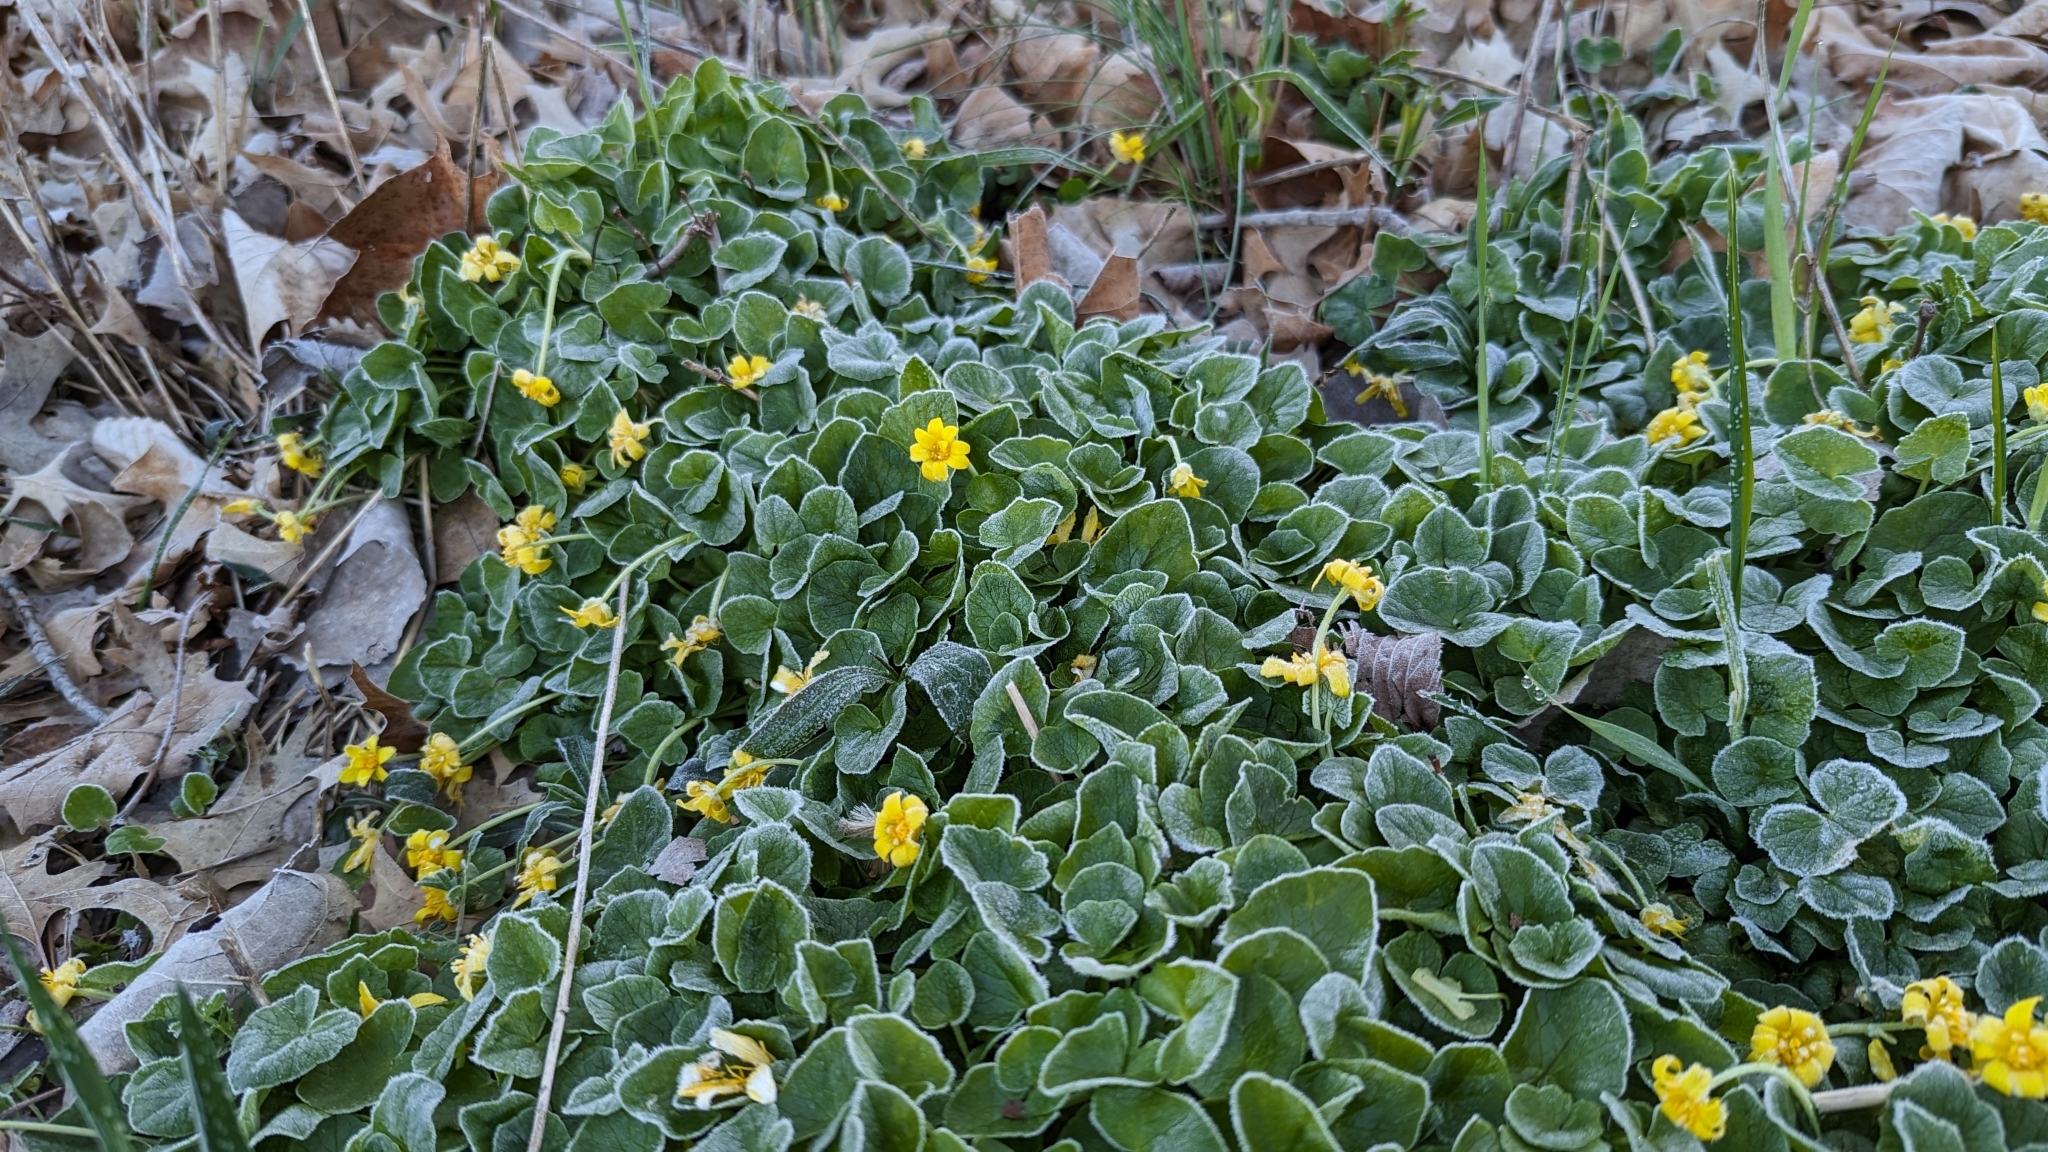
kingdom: Plantae
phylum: Tracheophyta
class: Magnoliopsida
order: Ranunculales
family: Ranunculaceae
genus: Ficaria
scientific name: Ficaria verna
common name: Lesser celandine
